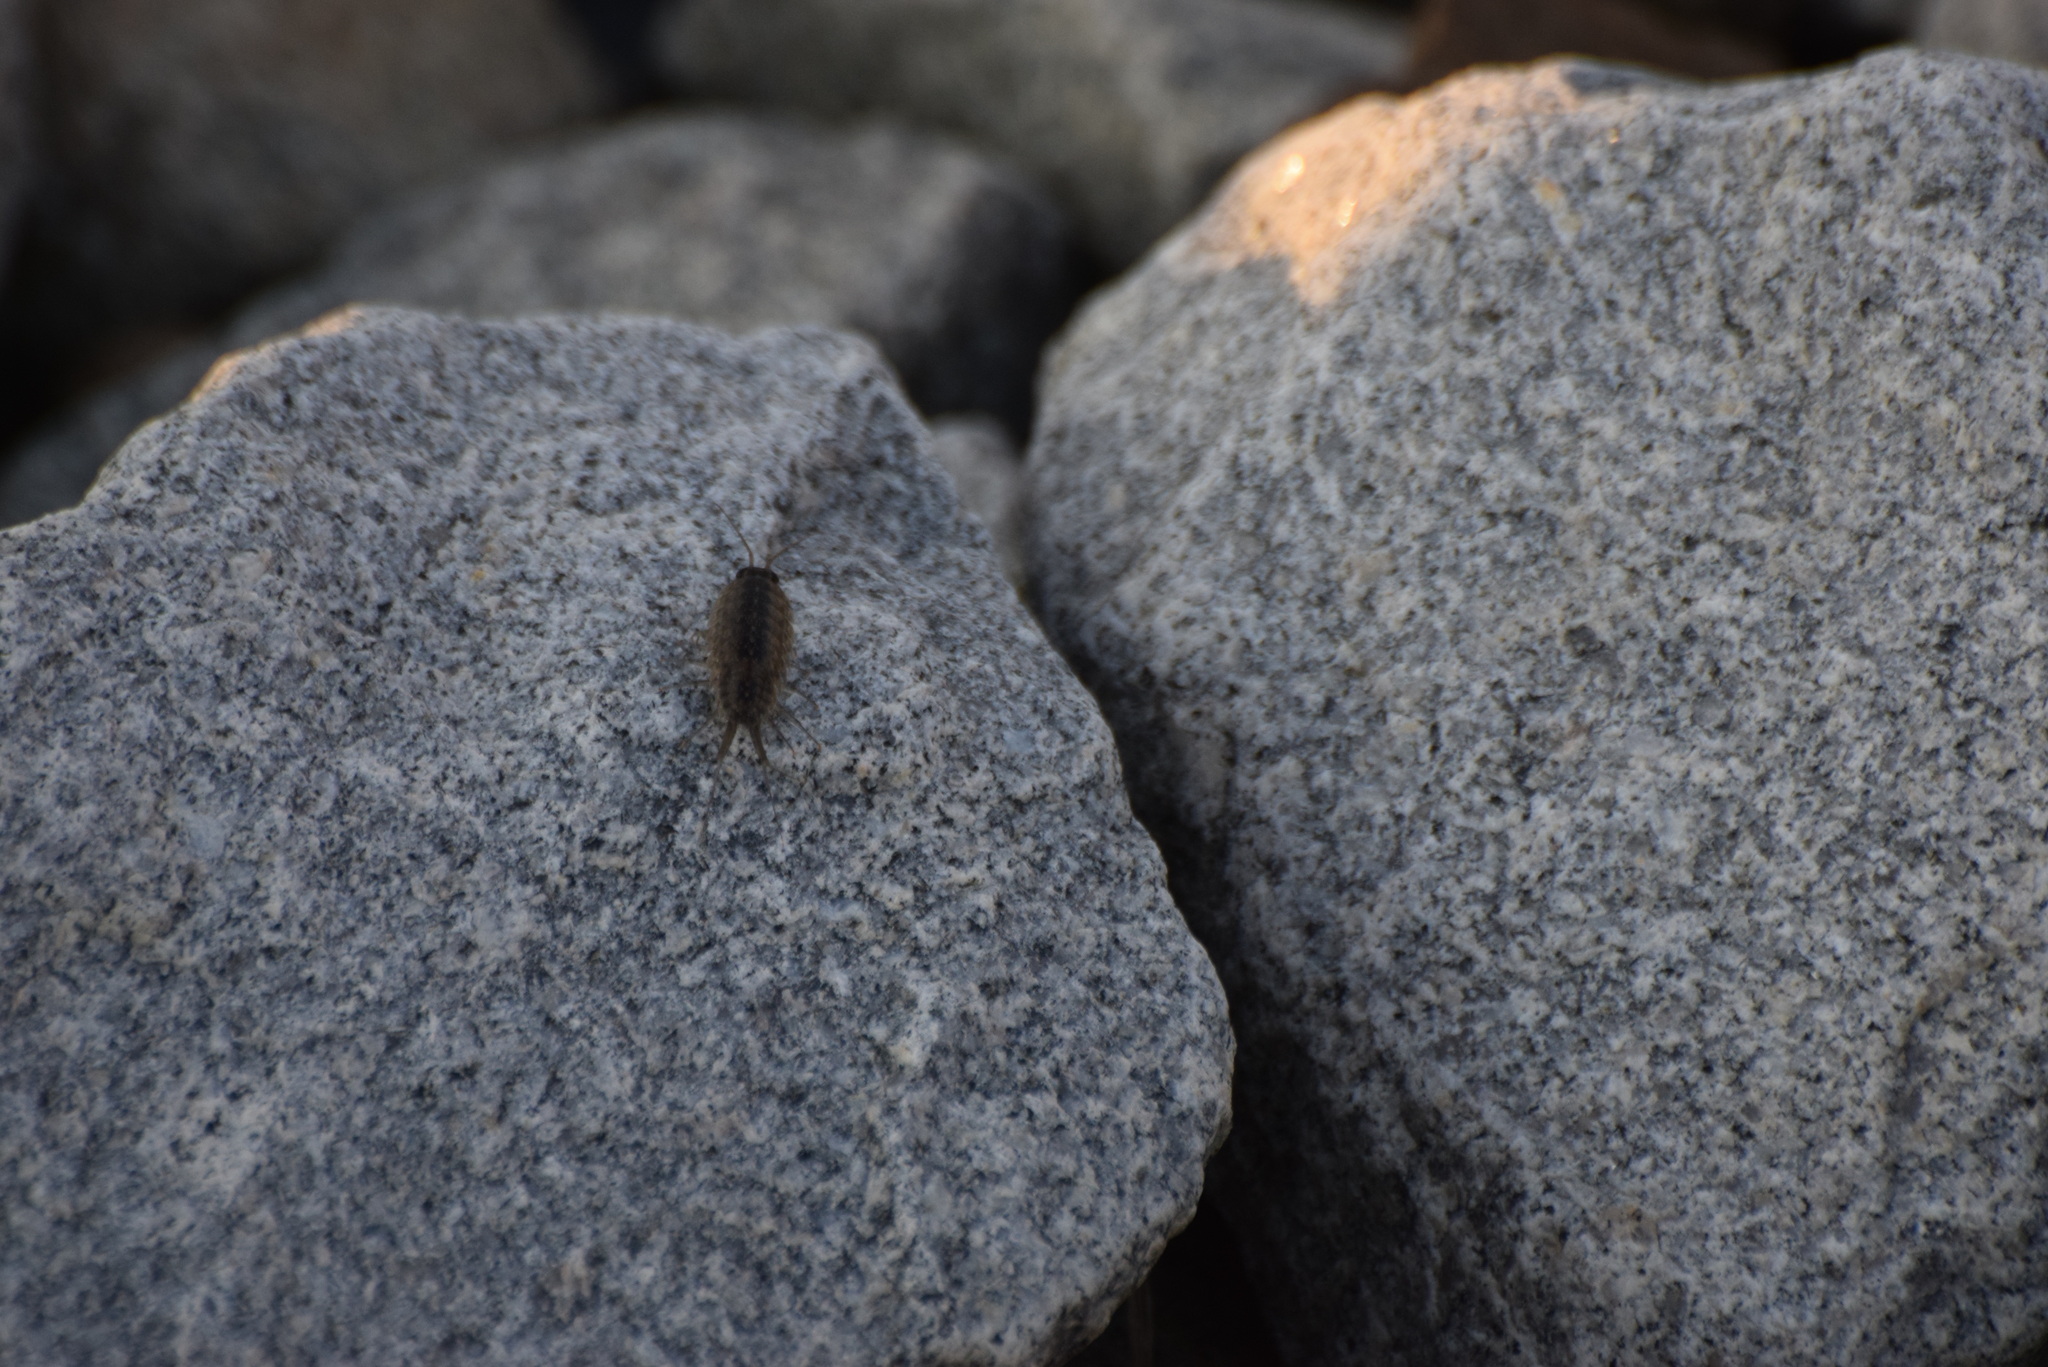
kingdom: Animalia
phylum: Arthropoda
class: Malacostraca
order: Isopoda
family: Ligiidae
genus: Ligia
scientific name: Ligia exotica
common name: Wharf roach
